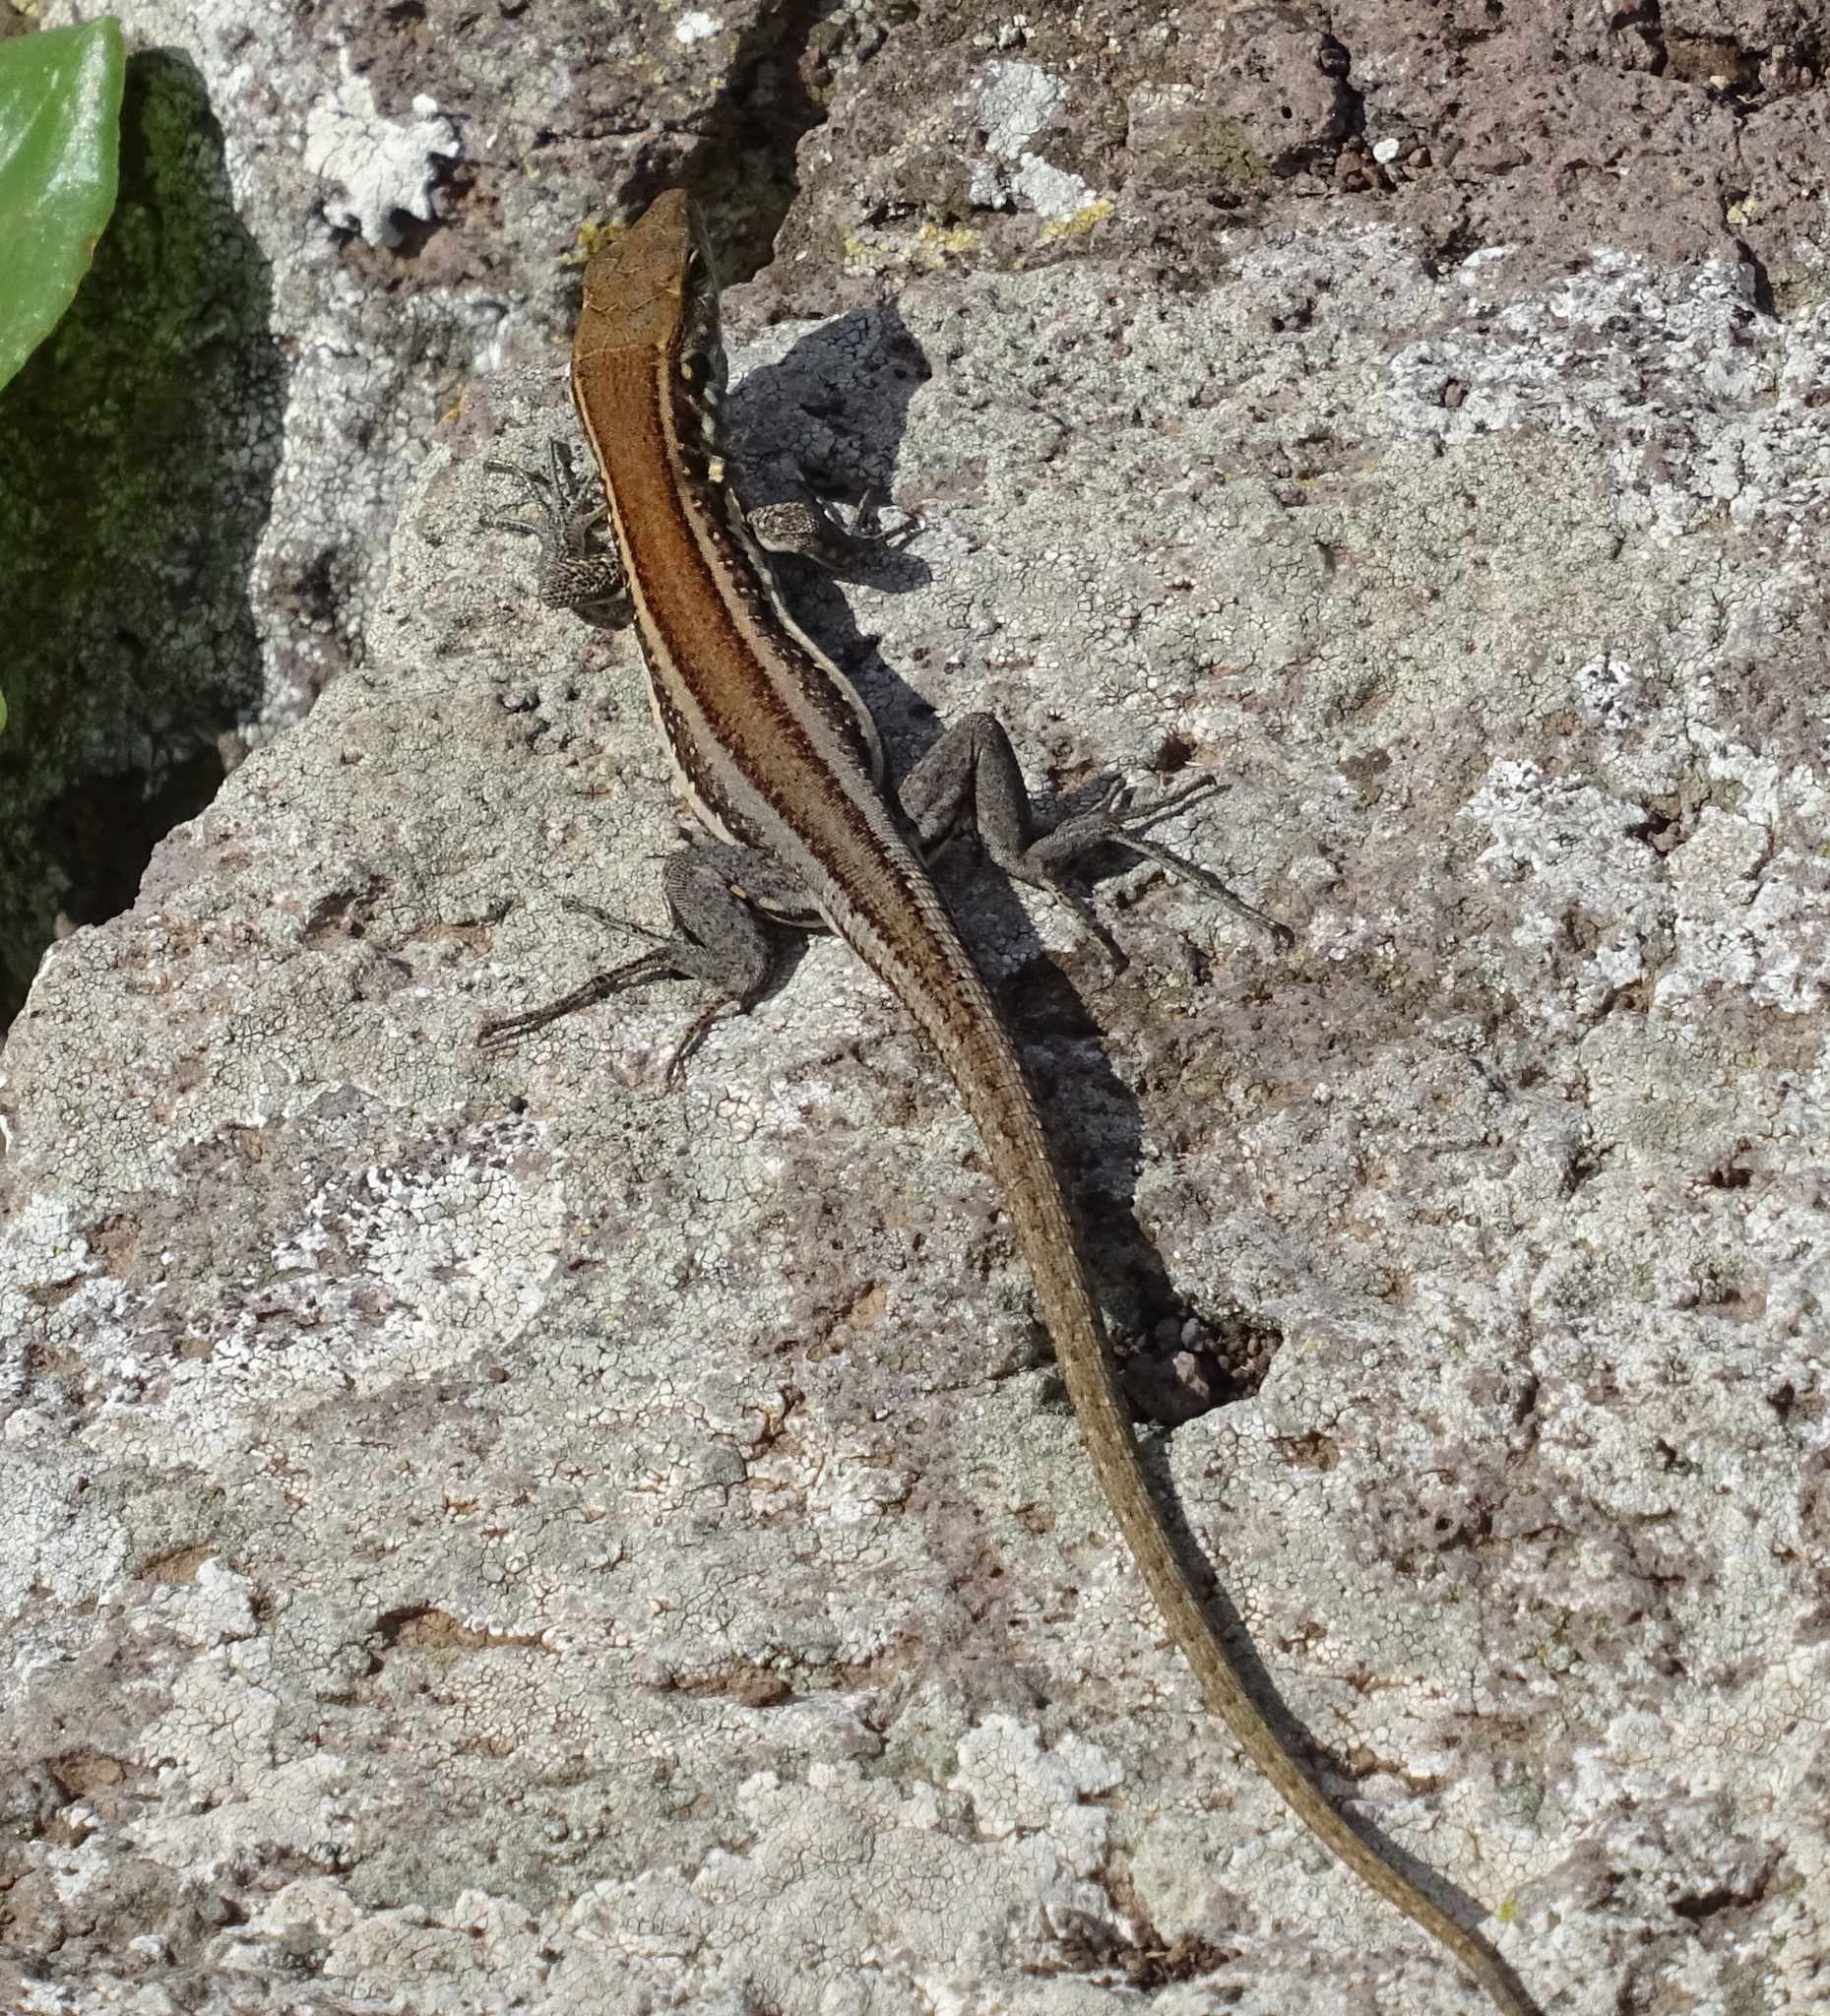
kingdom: Animalia
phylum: Chordata
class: Squamata
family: Lacertidae
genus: Gallotia
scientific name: Gallotia galloti
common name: Gallot's lizard
